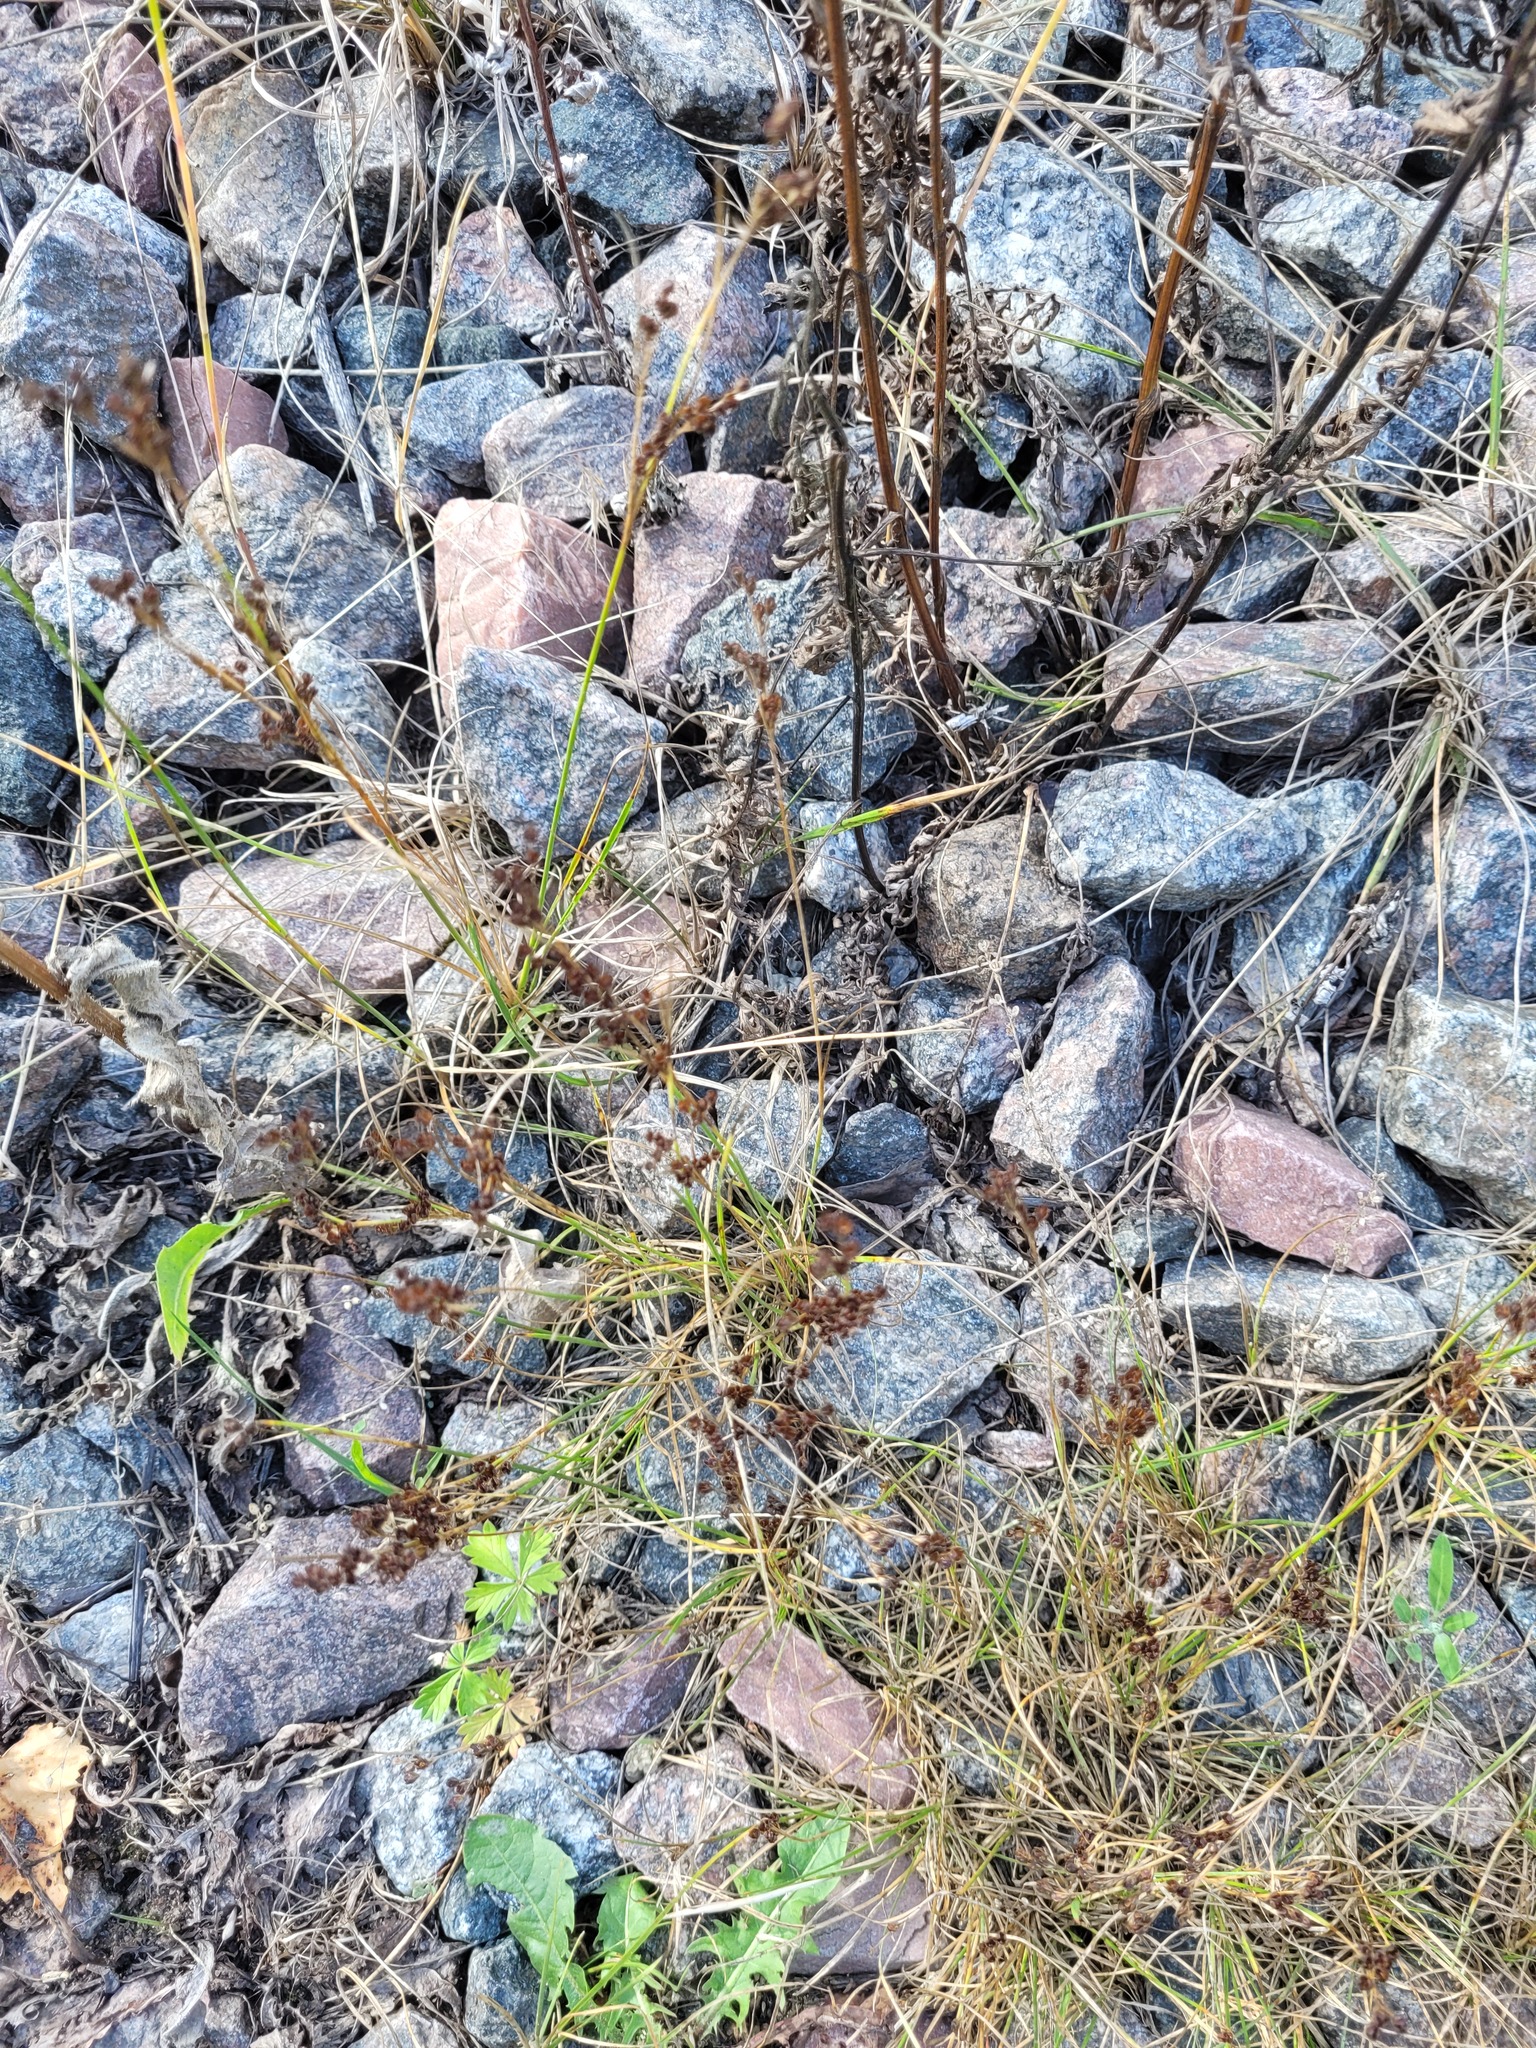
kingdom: Plantae
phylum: Tracheophyta
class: Liliopsida
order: Poales
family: Juncaceae
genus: Juncus
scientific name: Juncus compressus
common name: Round-fruited rush
